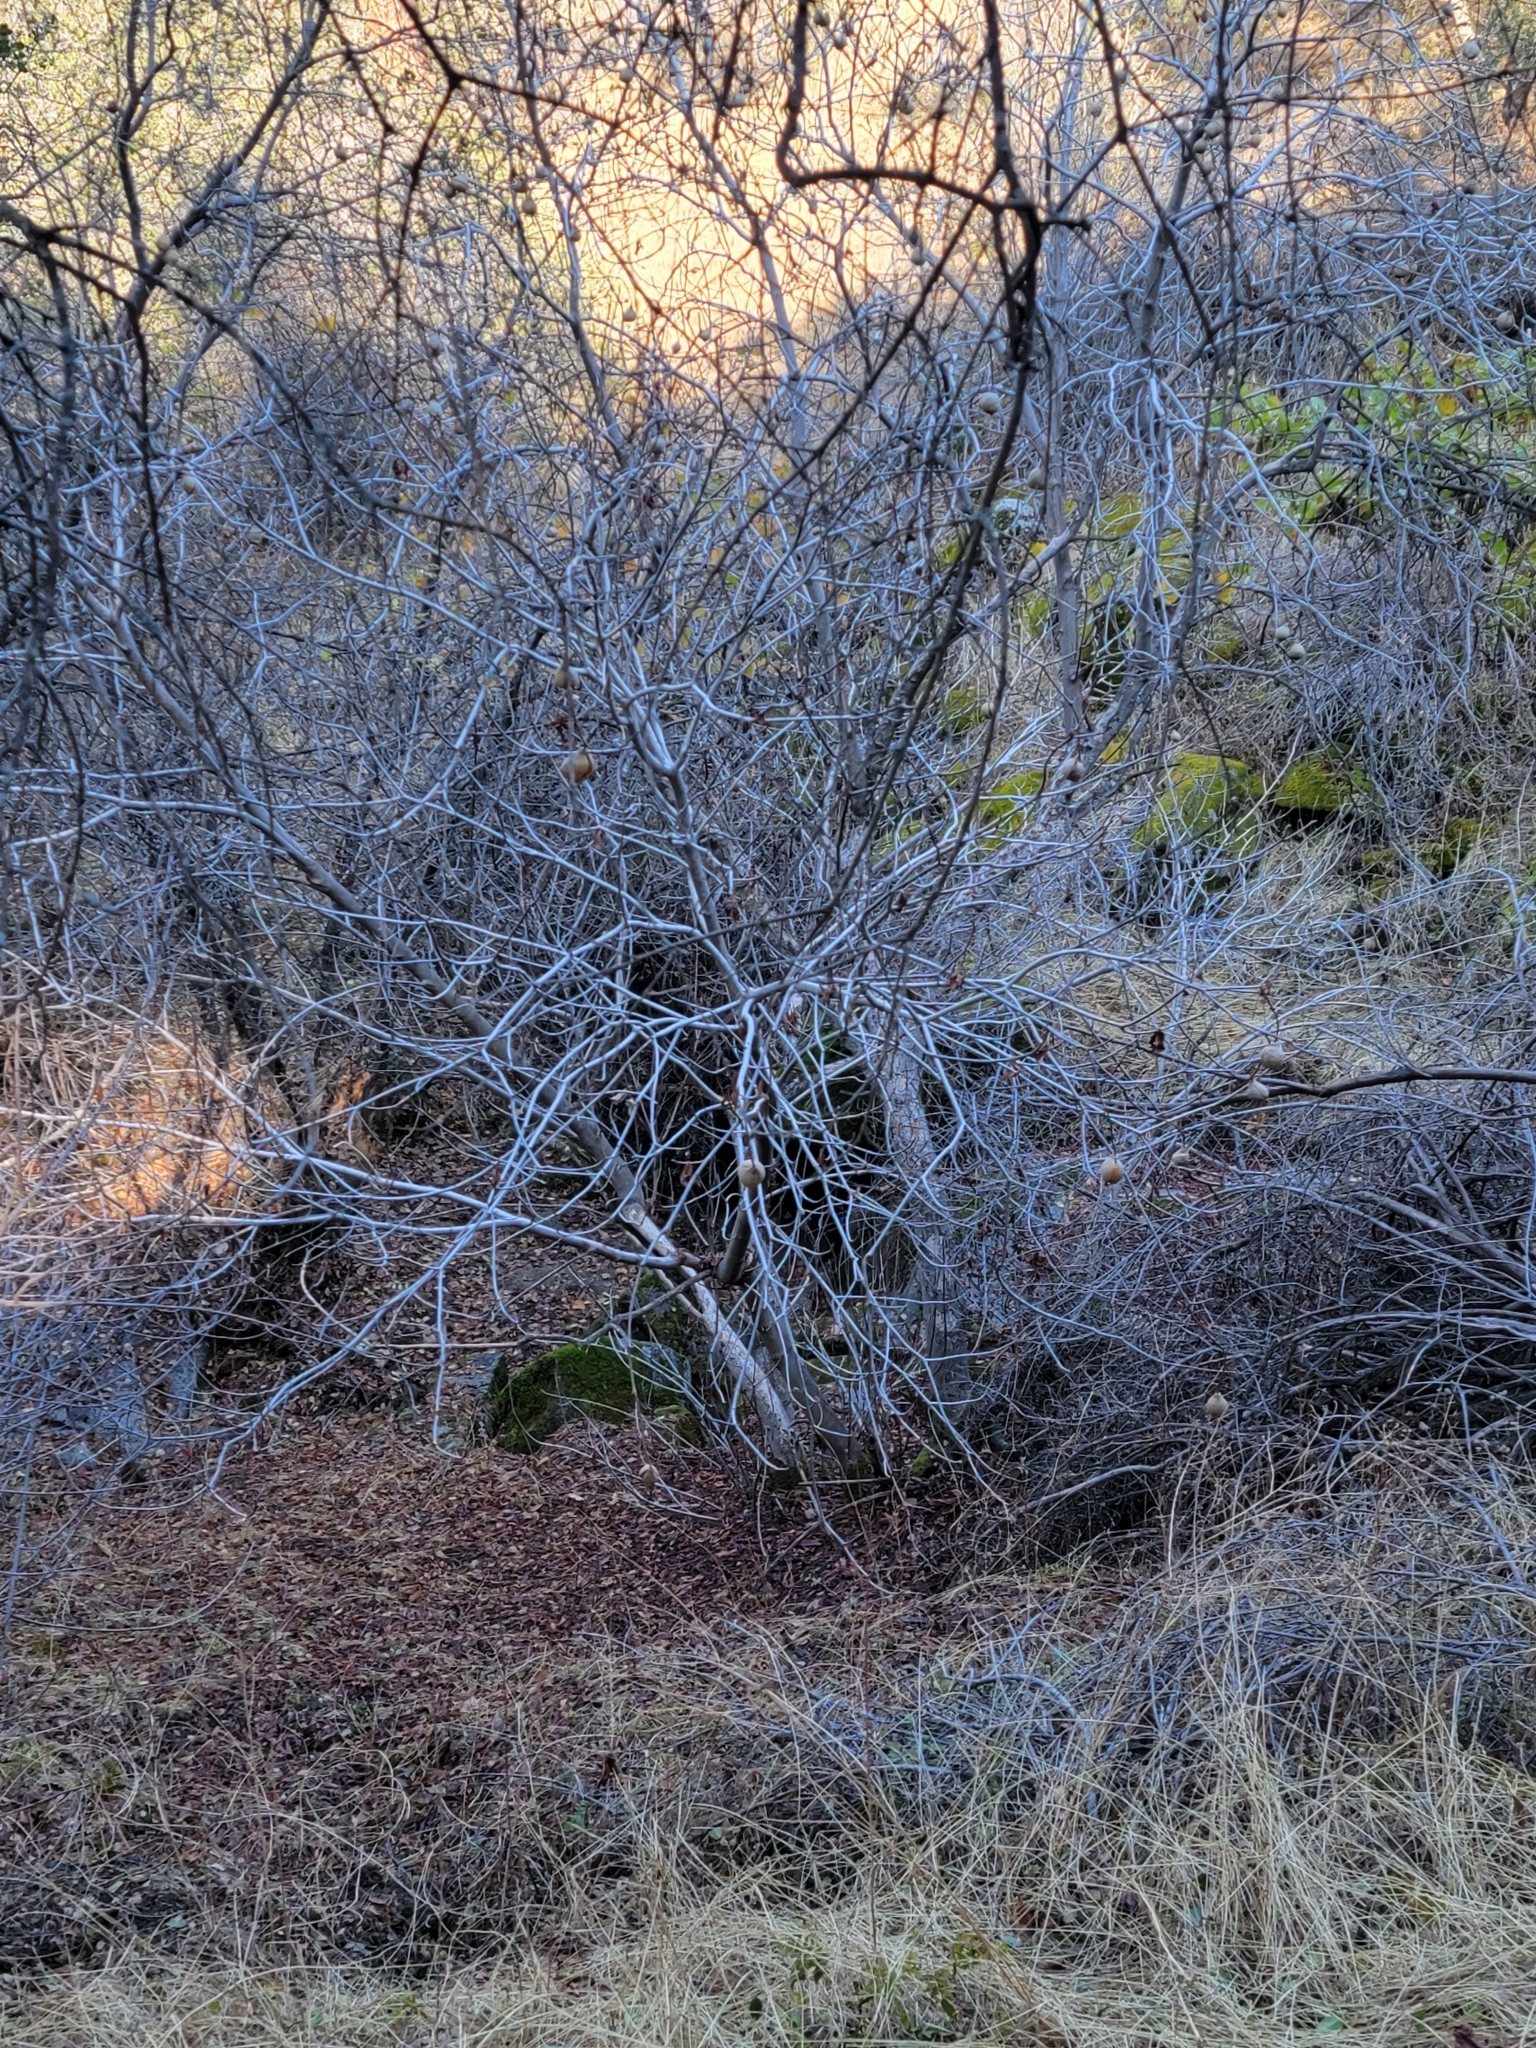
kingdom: Plantae
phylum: Tracheophyta
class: Magnoliopsida
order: Sapindales
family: Sapindaceae
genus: Aesculus
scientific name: Aesculus californica
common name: California buckeye
